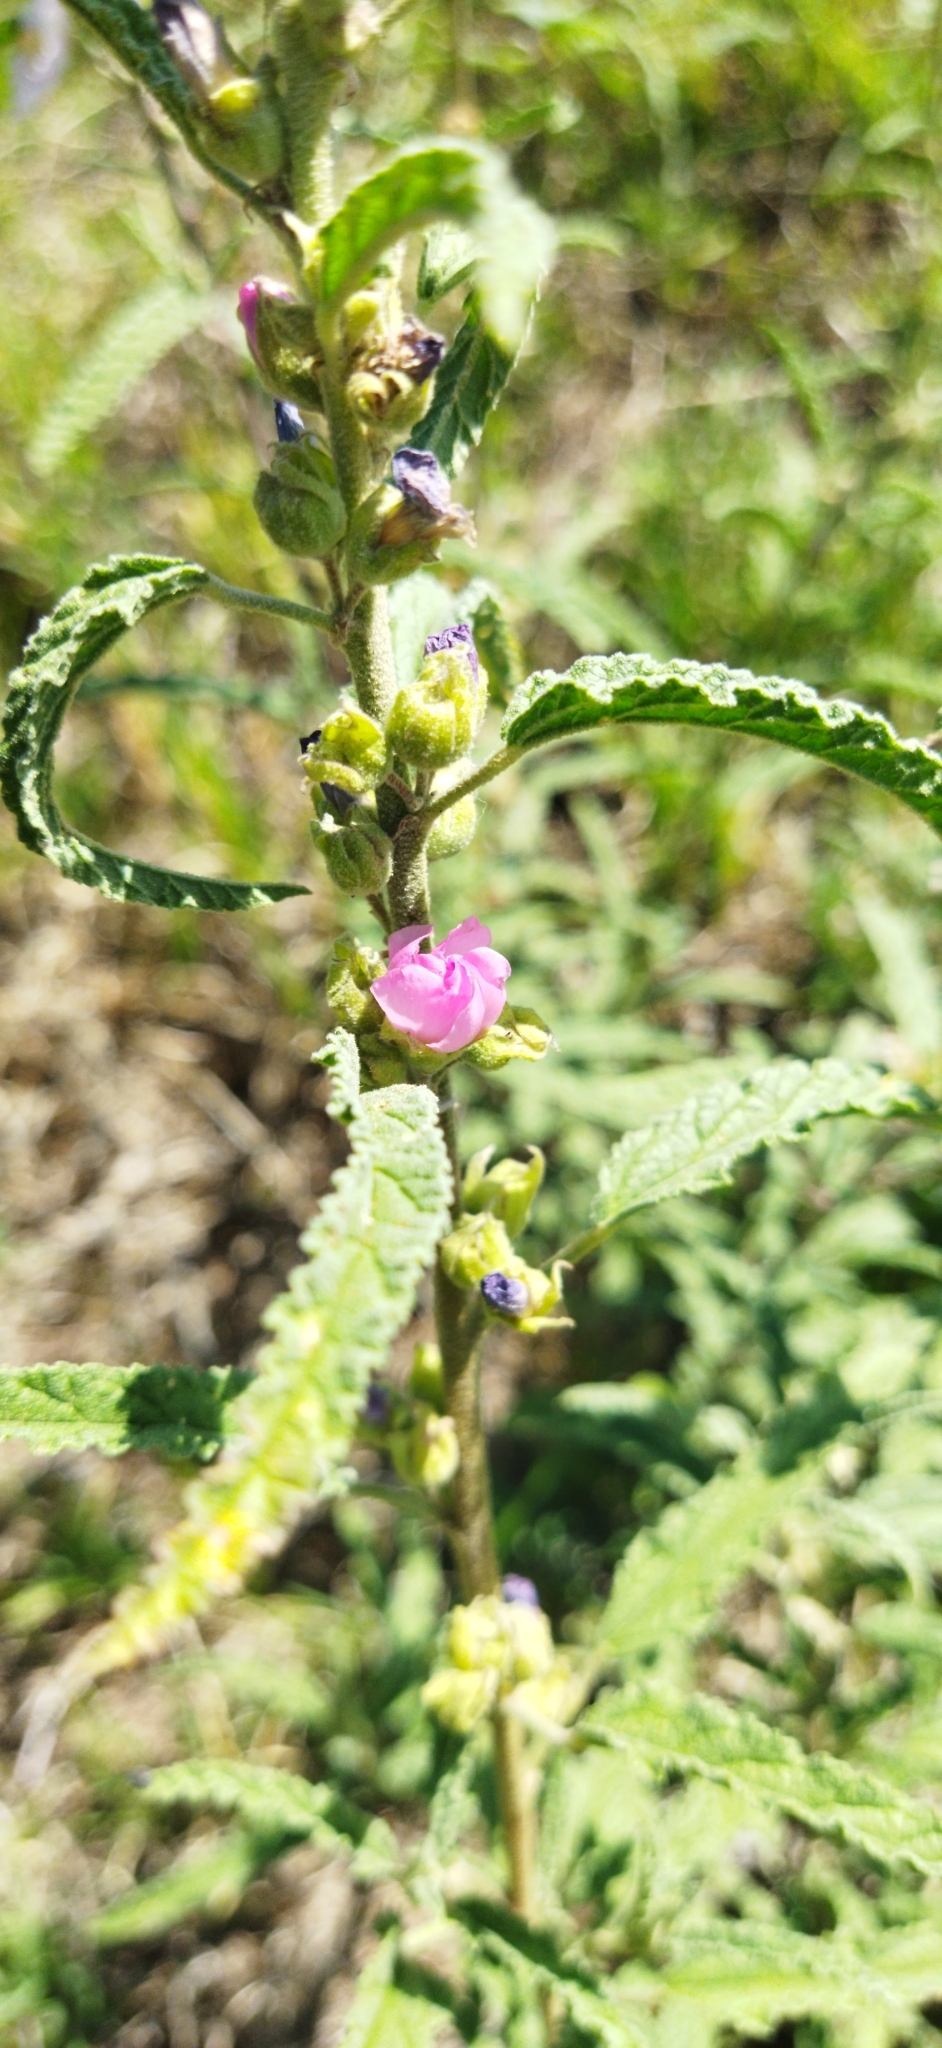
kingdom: Plantae
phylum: Tracheophyta
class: Magnoliopsida
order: Malvales
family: Malvaceae
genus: Sphaeralcea
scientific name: Sphaeralcea angustifolia
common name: Copper globe-mallow
